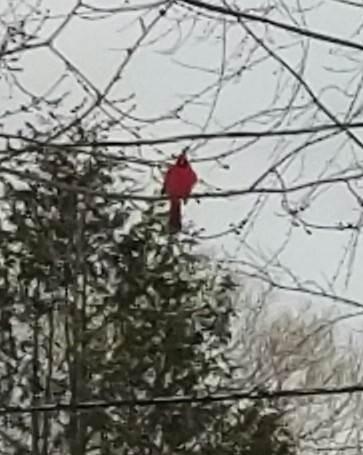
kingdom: Animalia
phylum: Chordata
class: Aves
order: Passeriformes
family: Cardinalidae
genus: Cardinalis
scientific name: Cardinalis cardinalis
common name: Northern cardinal
